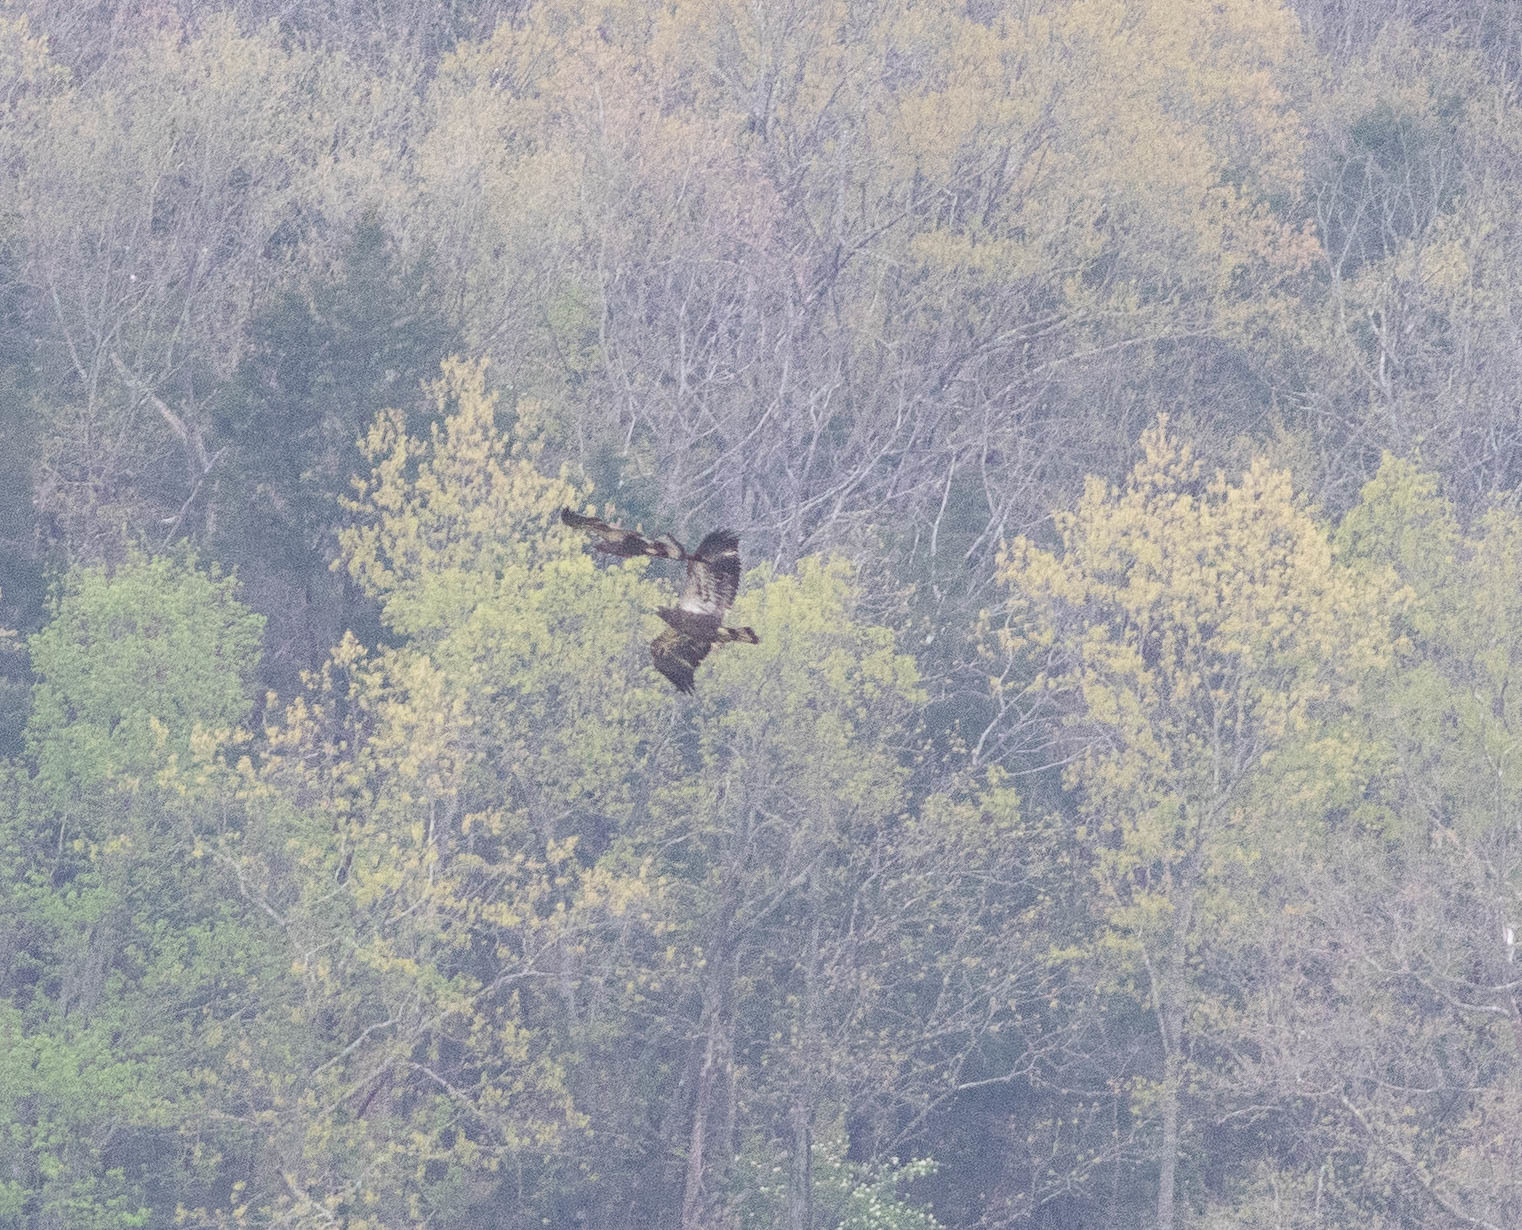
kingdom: Animalia
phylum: Chordata
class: Aves
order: Accipitriformes
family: Accipitridae
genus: Haliaeetus
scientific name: Haliaeetus leucocephalus
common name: Bald eagle
